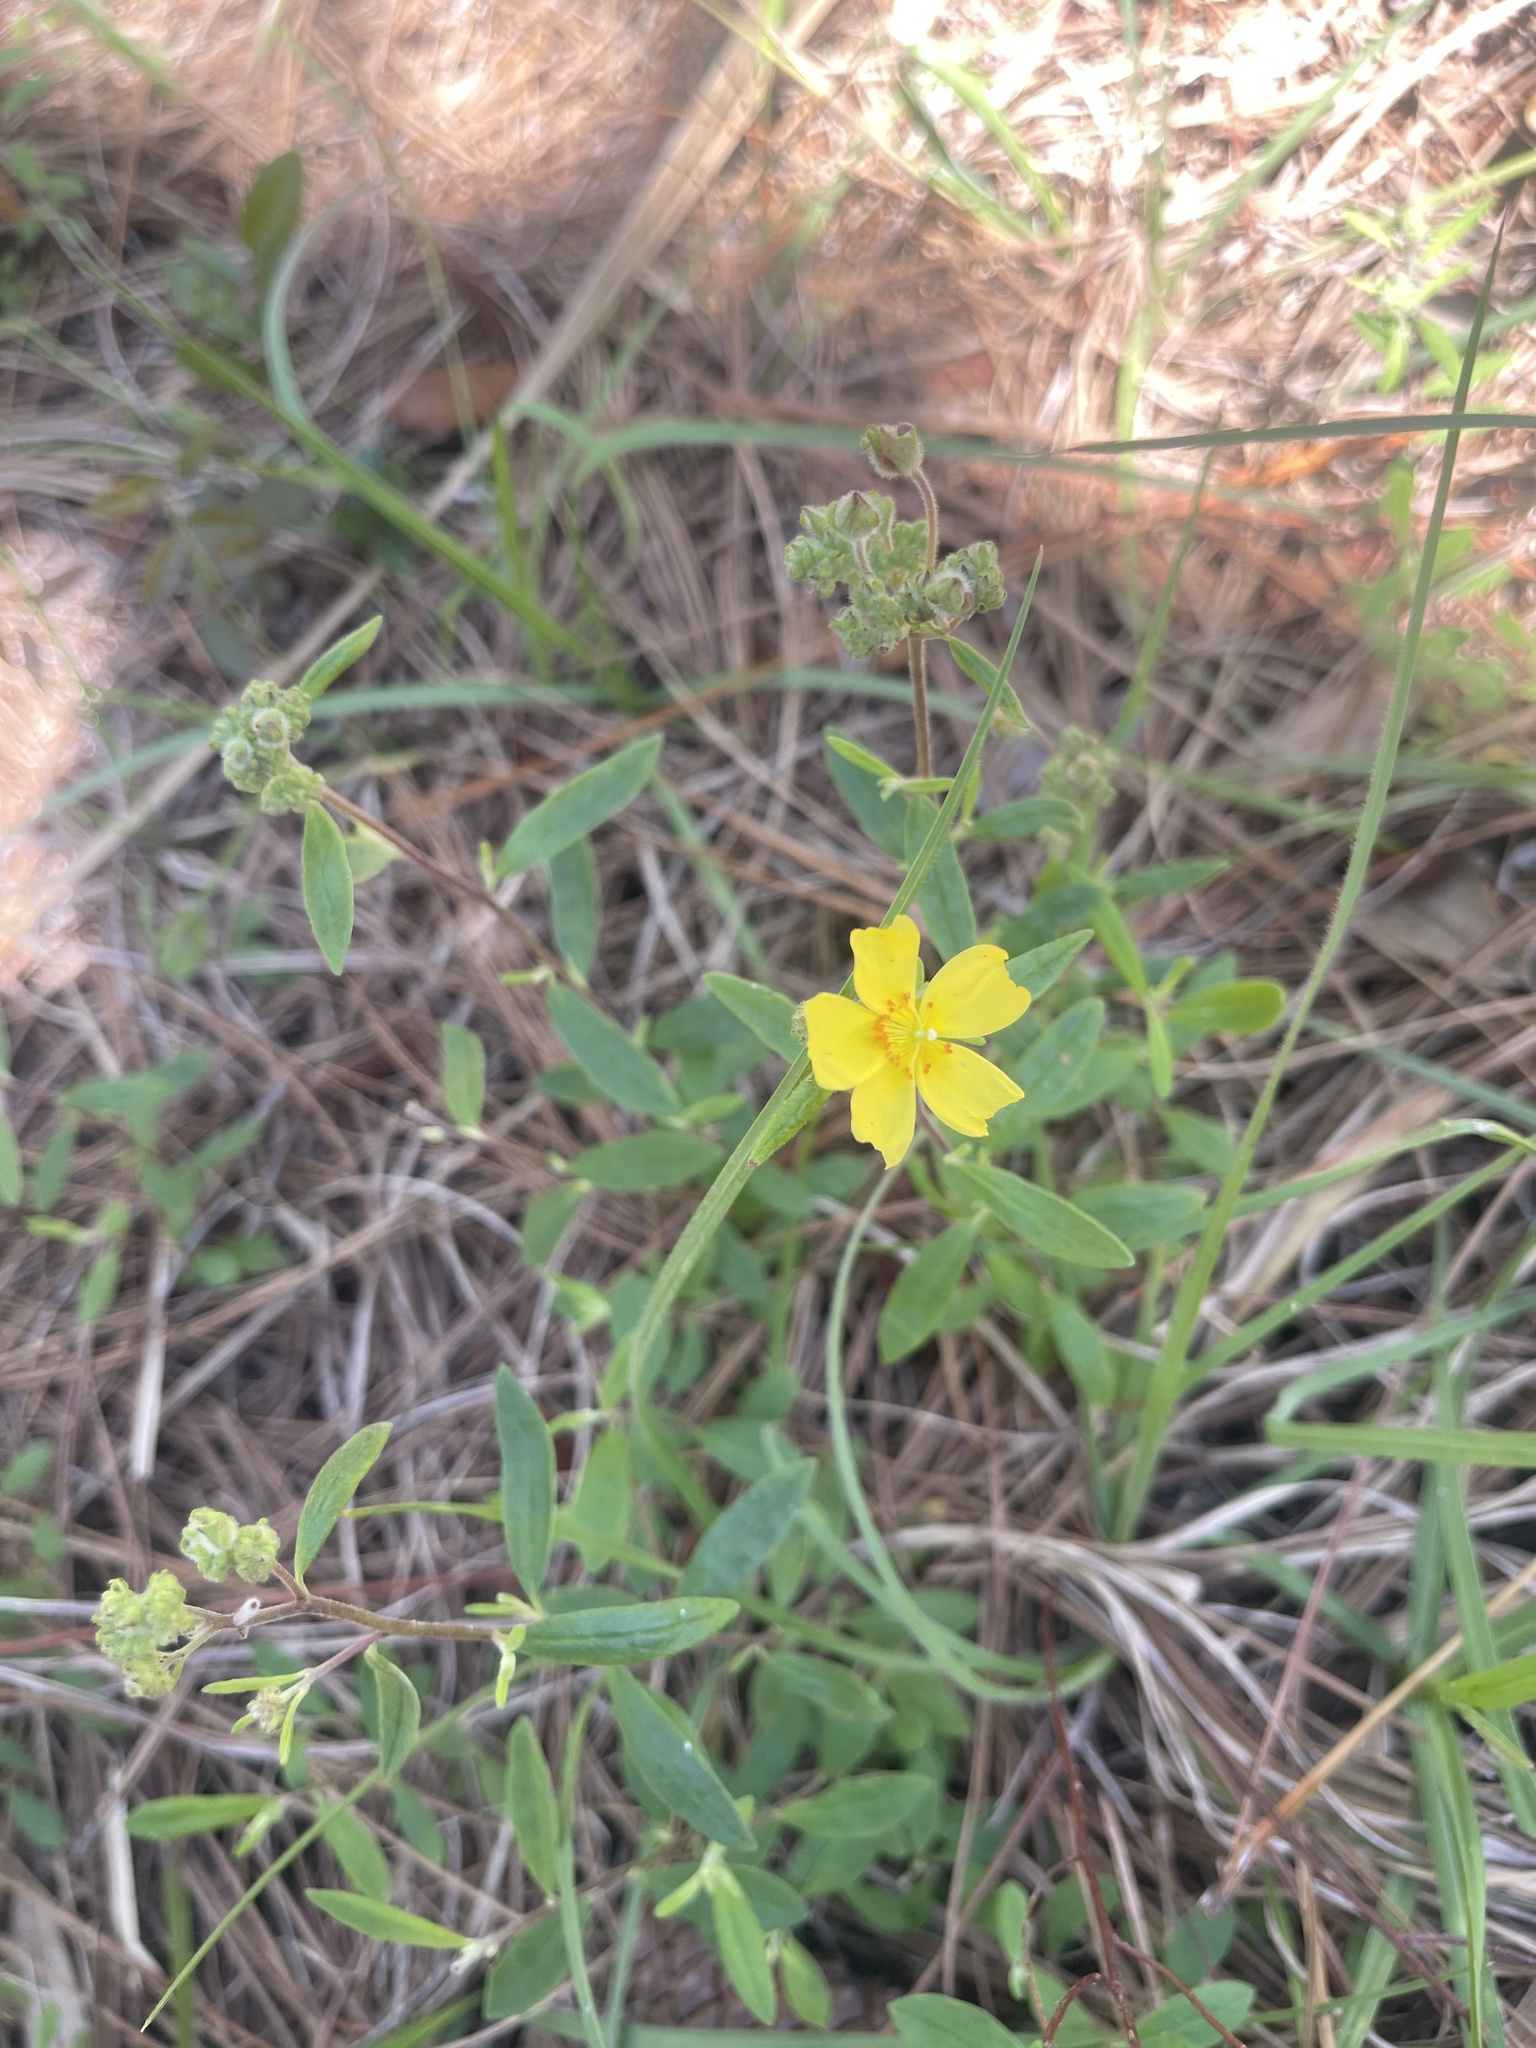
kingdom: Plantae
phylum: Tracheophyta
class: Magnoliopsida
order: Malvales
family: Cistaceae
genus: Crocanthemum
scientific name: Crocanthemum corymbosum
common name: Pinebarren sun-rose
